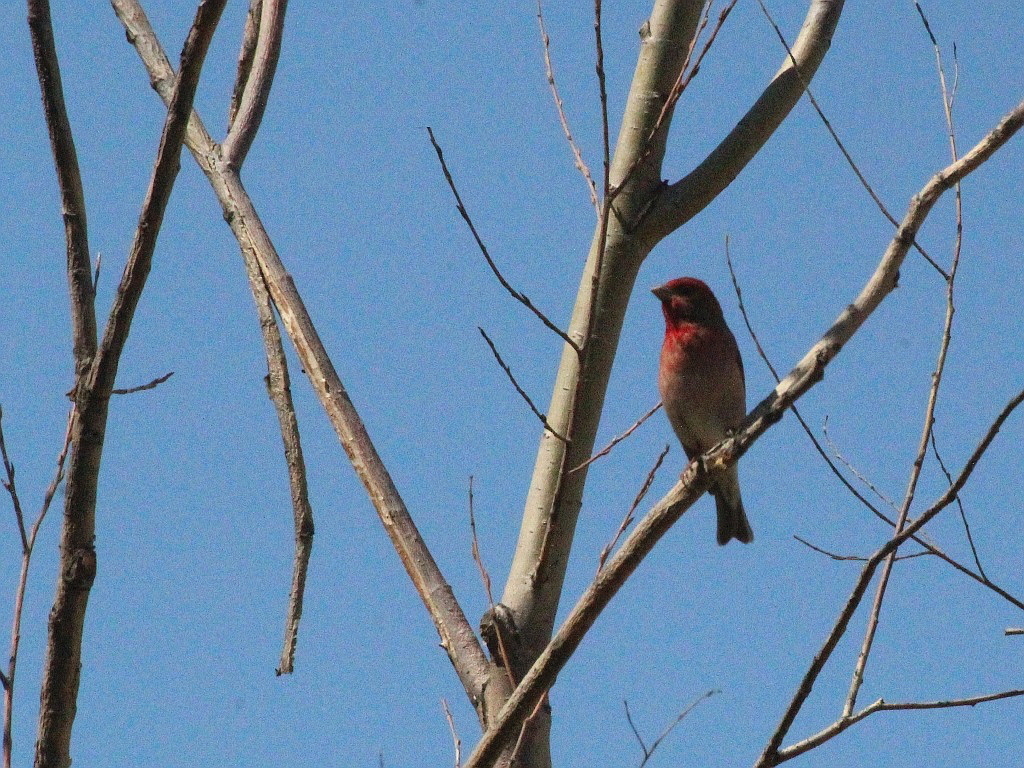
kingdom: Animalia
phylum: Chordata
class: Aves
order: Passeriformes
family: Fringillidae
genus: Carpodacus
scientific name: Carpodacus erythrinus
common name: Common rosefinch
